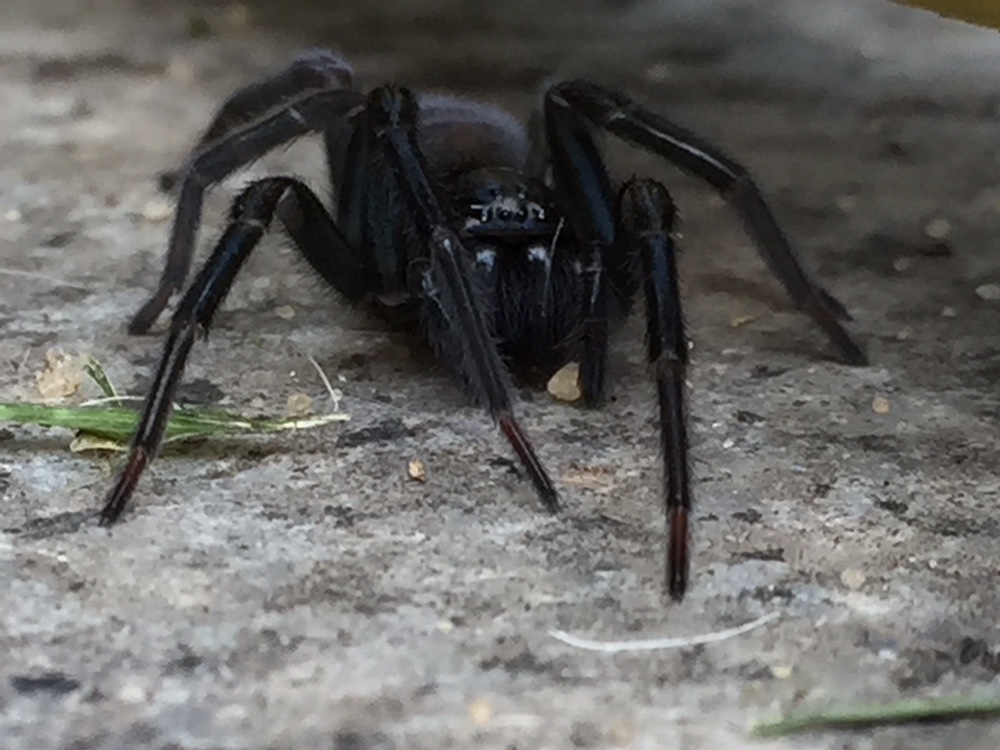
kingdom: Animalia
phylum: Arthropoda
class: Arachnida
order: Araneae
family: Amaurobiidae
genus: Amaurobius
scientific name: Amaurobius ferox
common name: Black laceweaver
